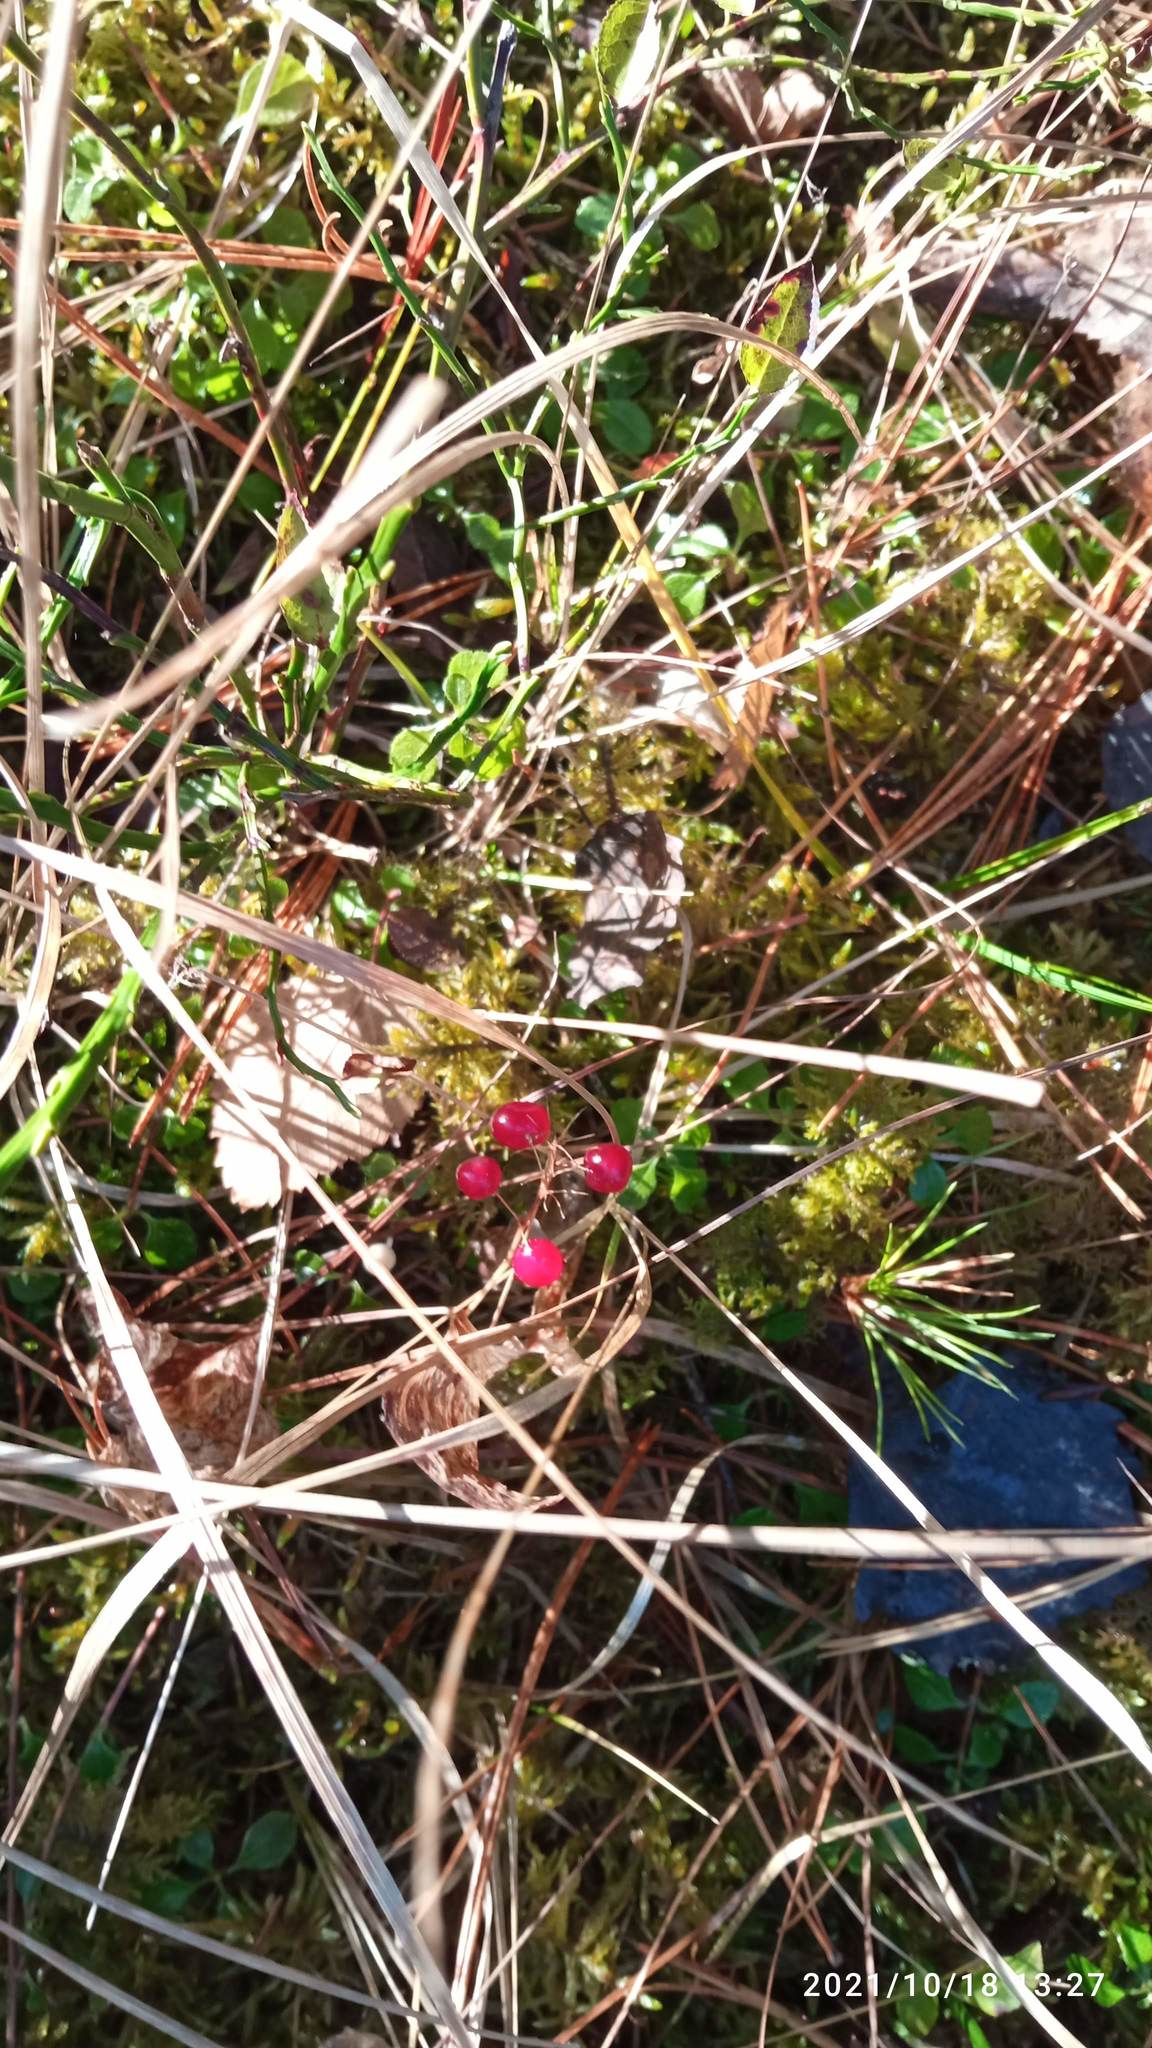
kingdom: Plantae
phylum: Tracheophyta
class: Liliopsida
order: Asparagales
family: Asparagaceae
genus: Maianthemum
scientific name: Maianthemum bifolium
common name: May lily
